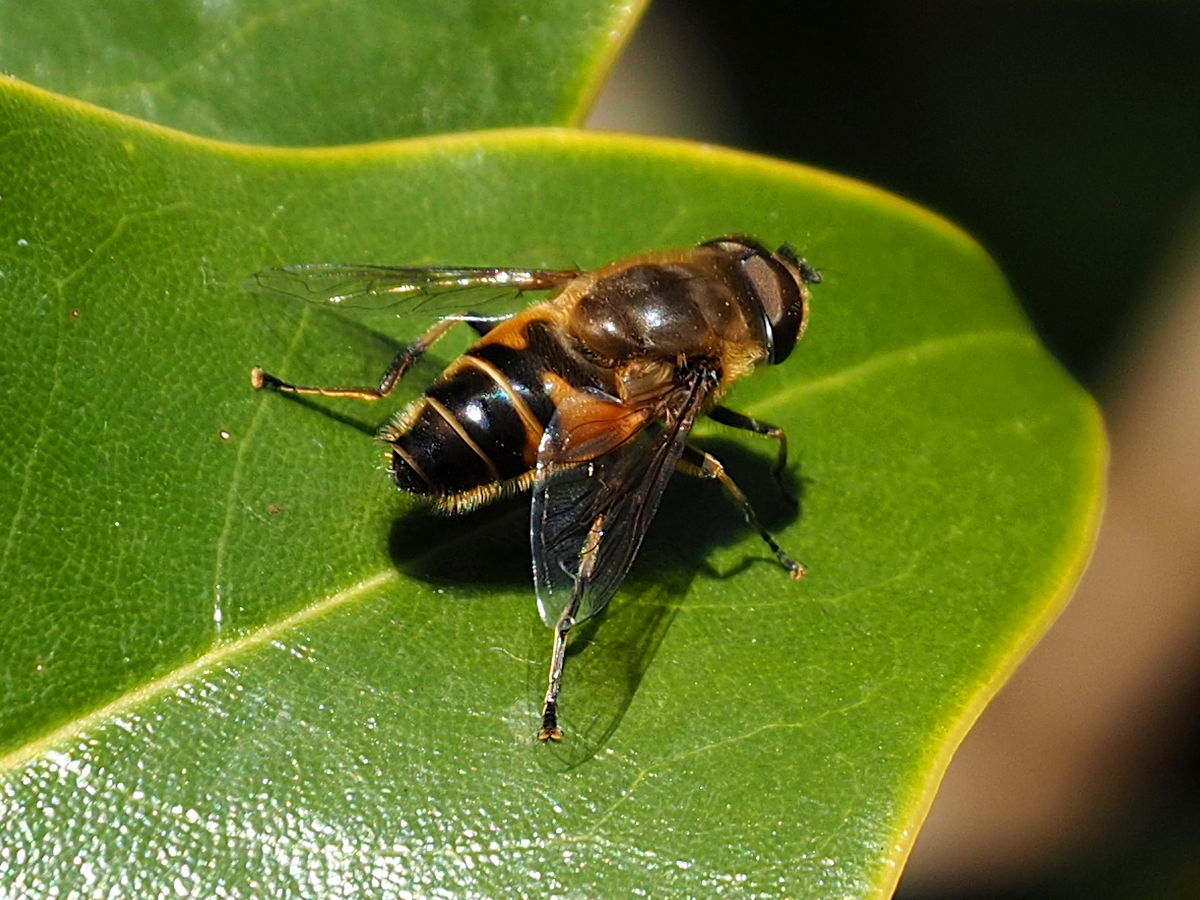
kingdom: Animalia
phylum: Arthropoda
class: Insecta
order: Diptera
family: Syrphidae
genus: Eristalis
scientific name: Eristalis pertinax
